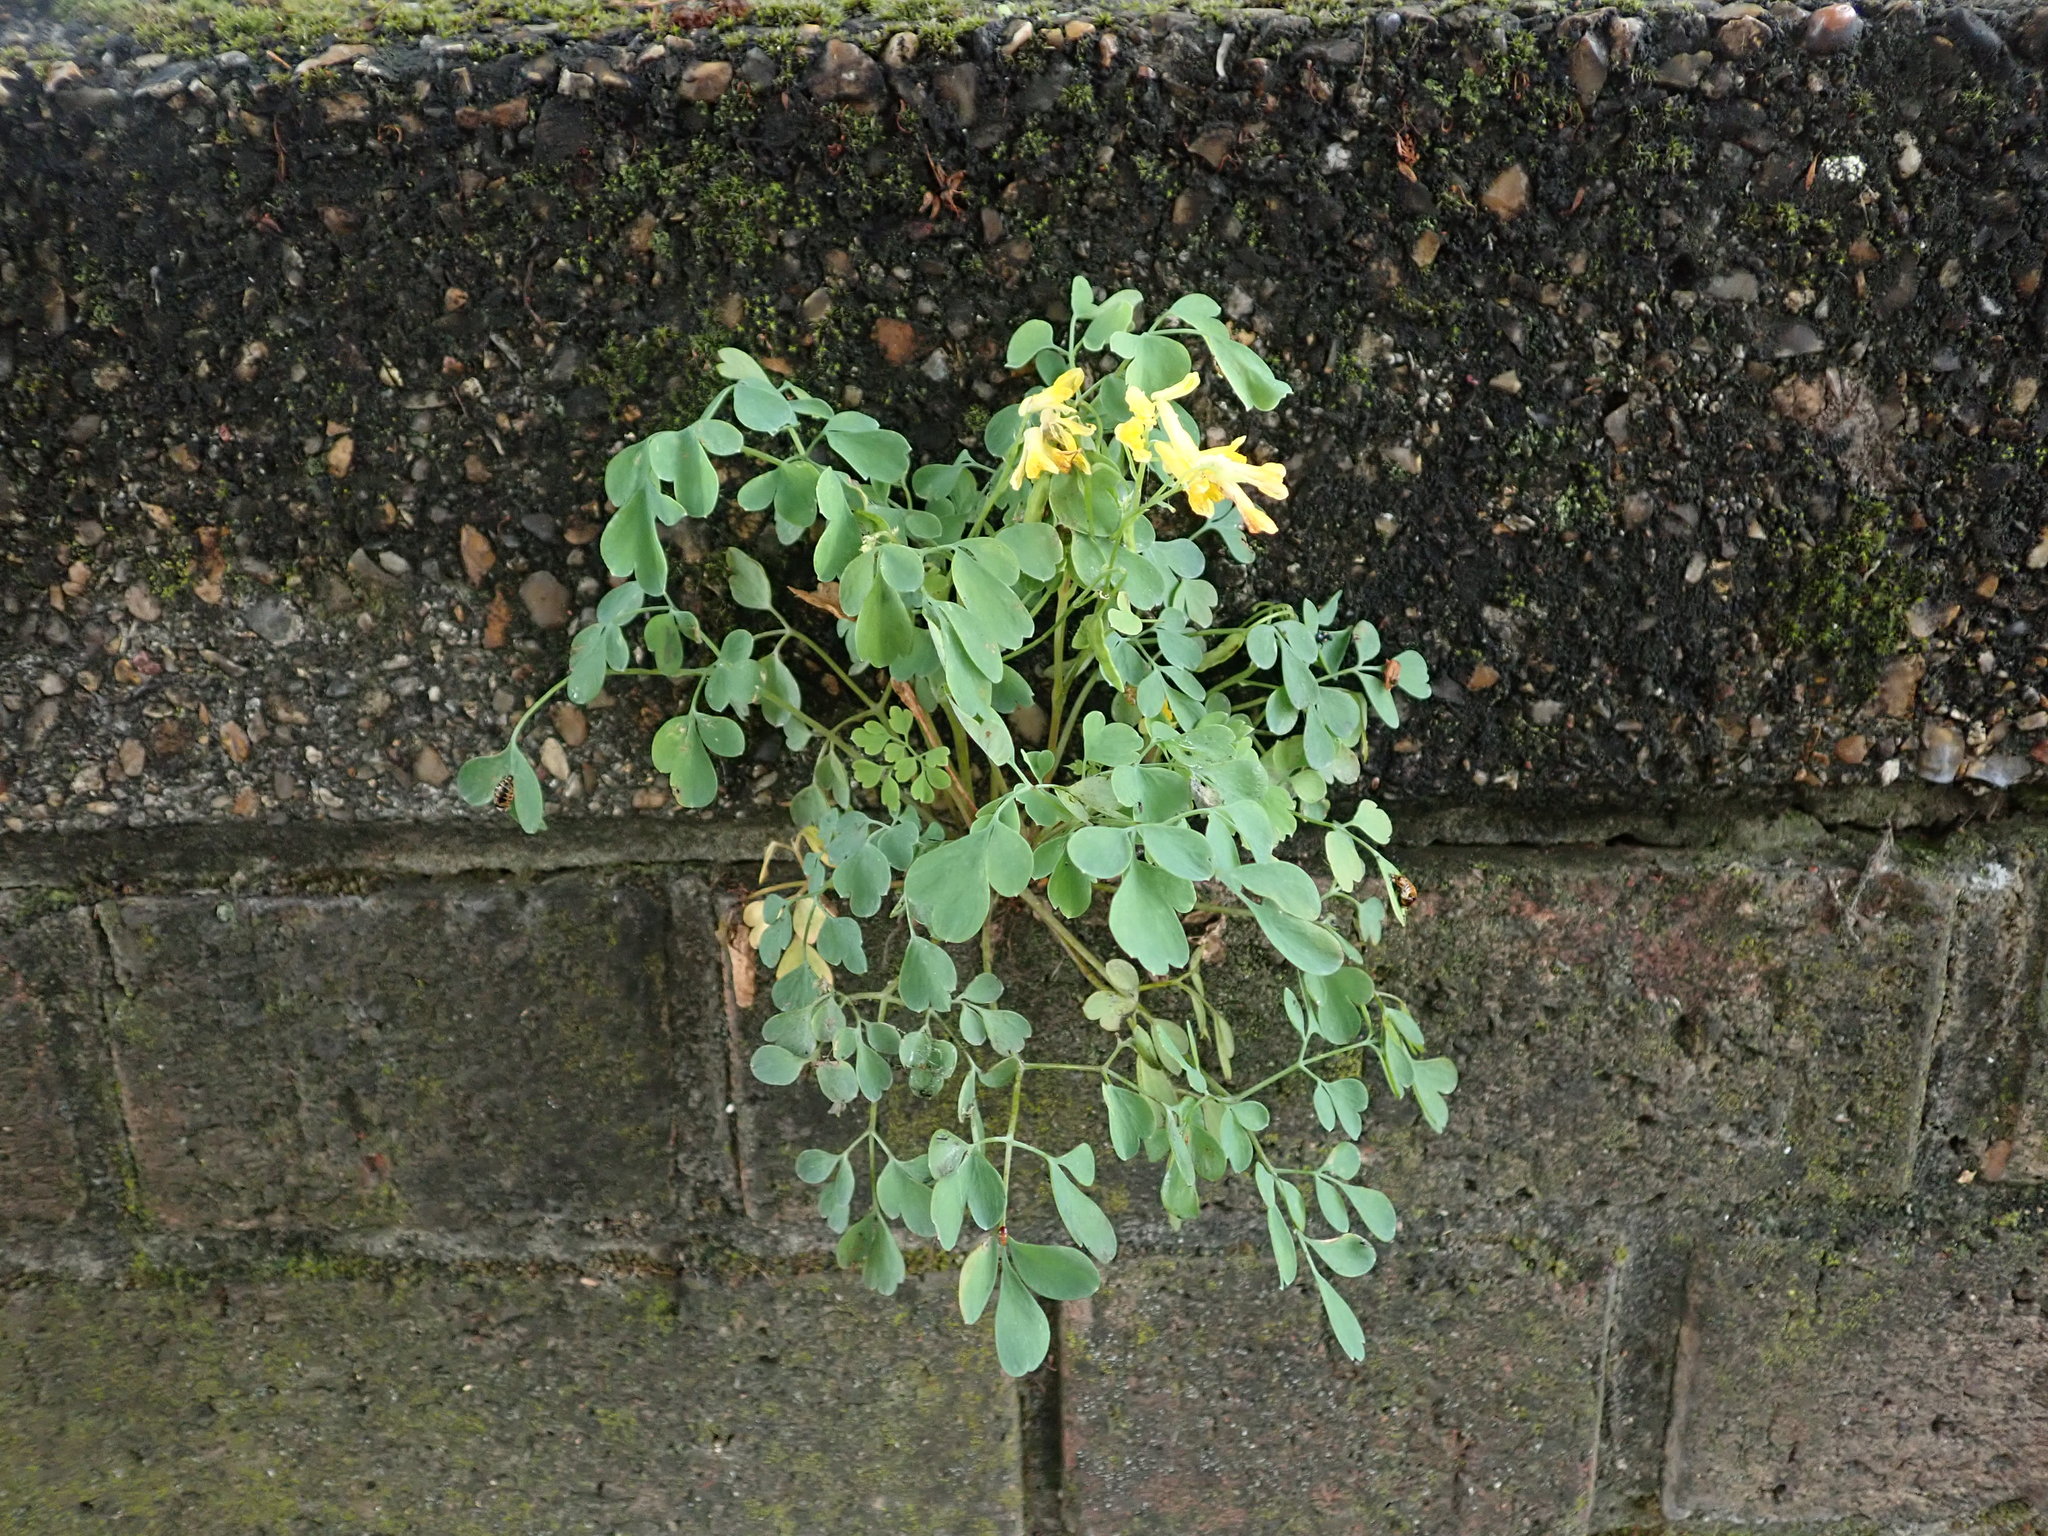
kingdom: Plantae
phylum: Tracheophyta
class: Magnoliopsida
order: Ranunculales
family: Papaveraceae
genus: Pseudofumaria
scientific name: Pseudofumaria lutea
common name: Yellow corydalis
